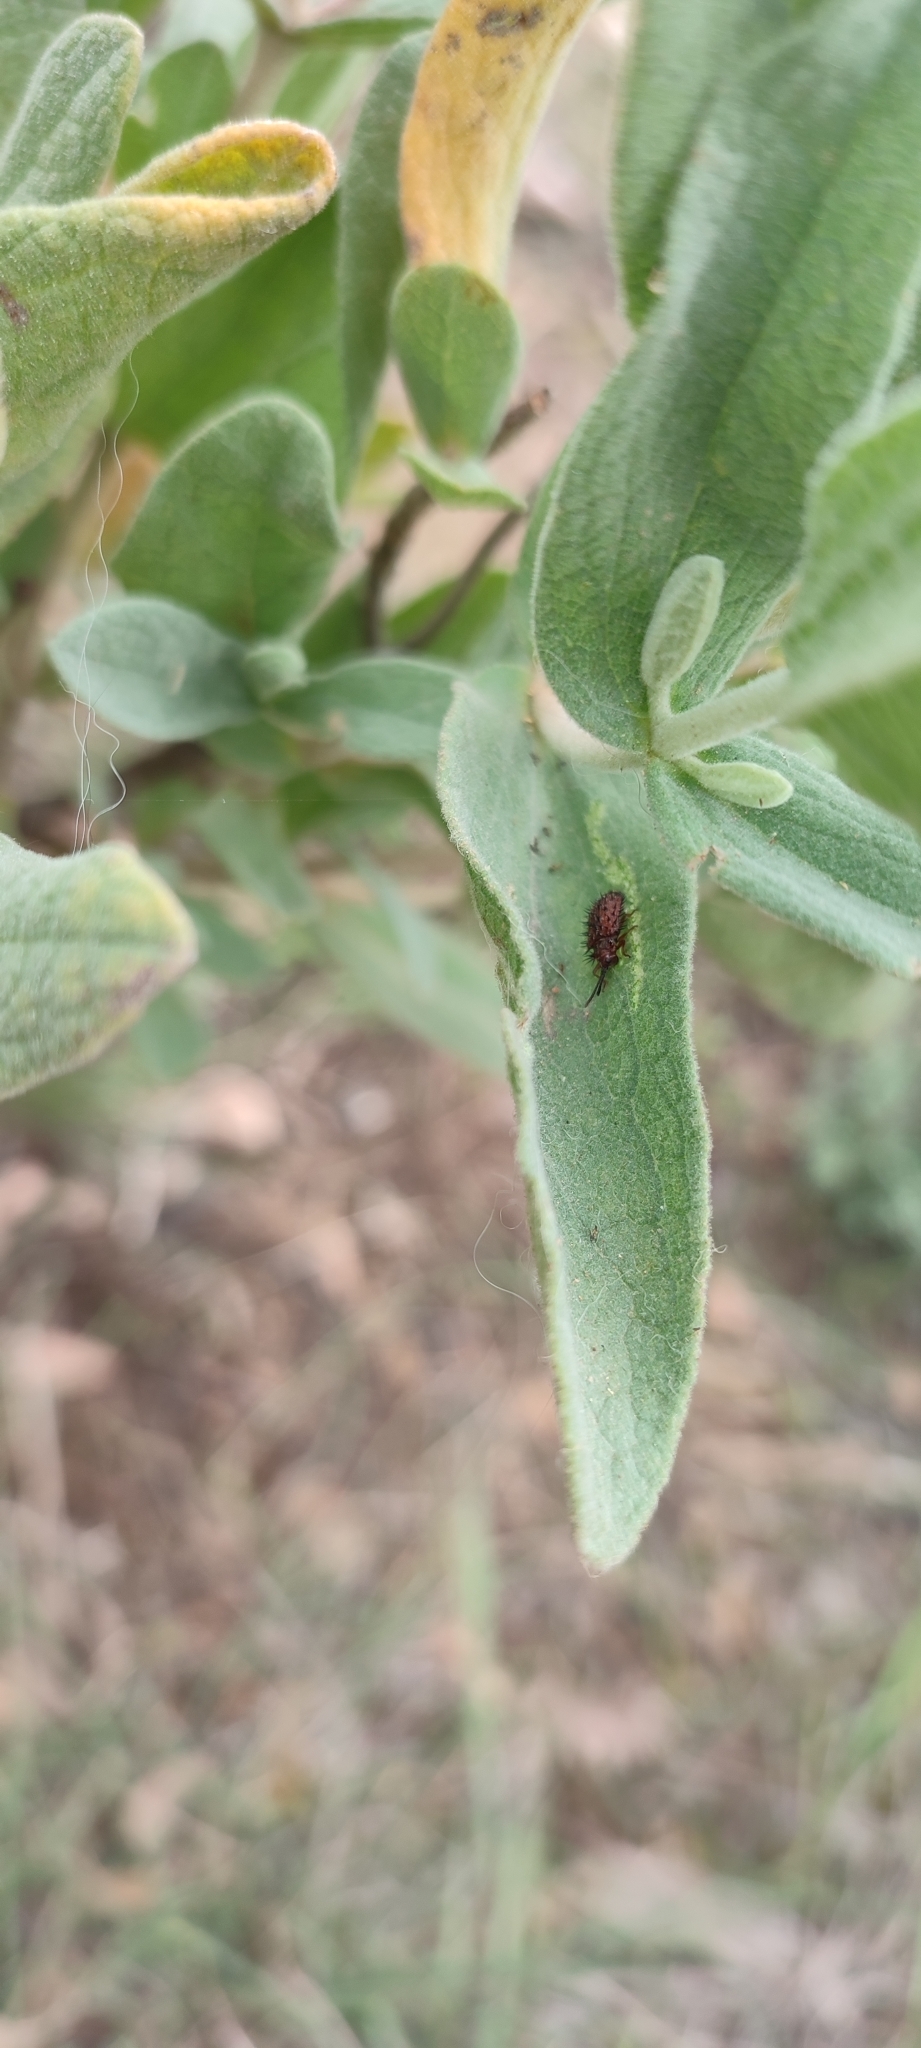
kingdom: Animalia
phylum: Arthropoda
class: Insecta
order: Coleoptera
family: Chrysomelidae
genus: Dicladispa
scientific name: Dicladispa testacea
